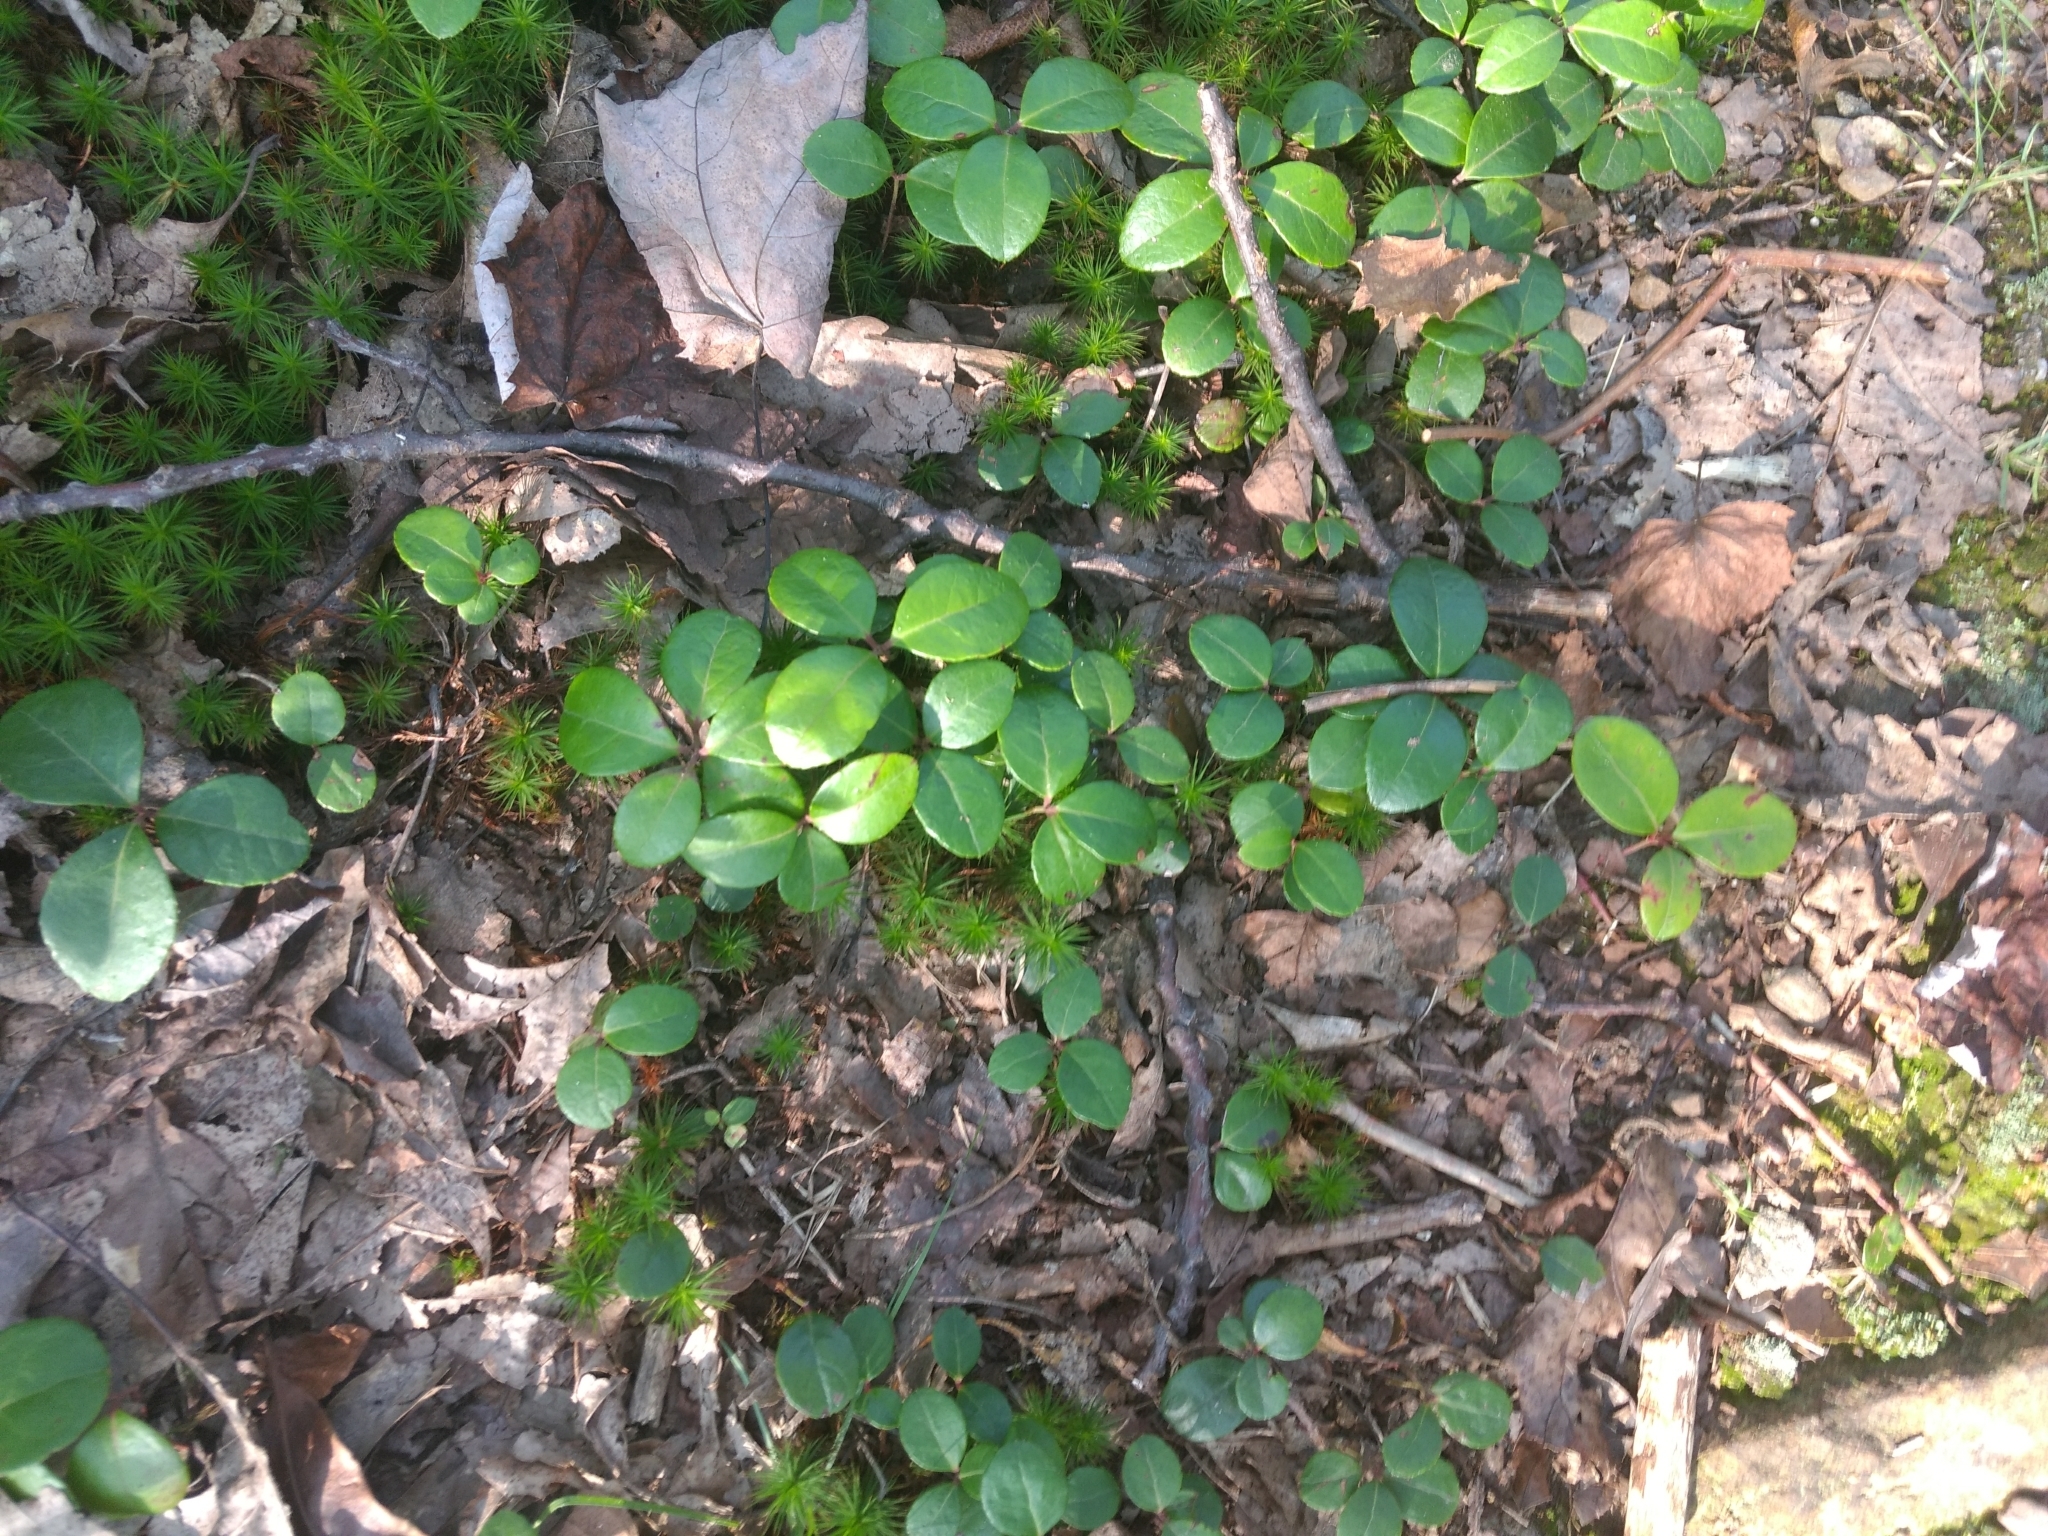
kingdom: Plantae
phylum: Tracheophyta
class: Magnoliopsida
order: Ericales
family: Ericaceae
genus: Gaultheria
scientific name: Gaultheria procumbens
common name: Checkerberry
